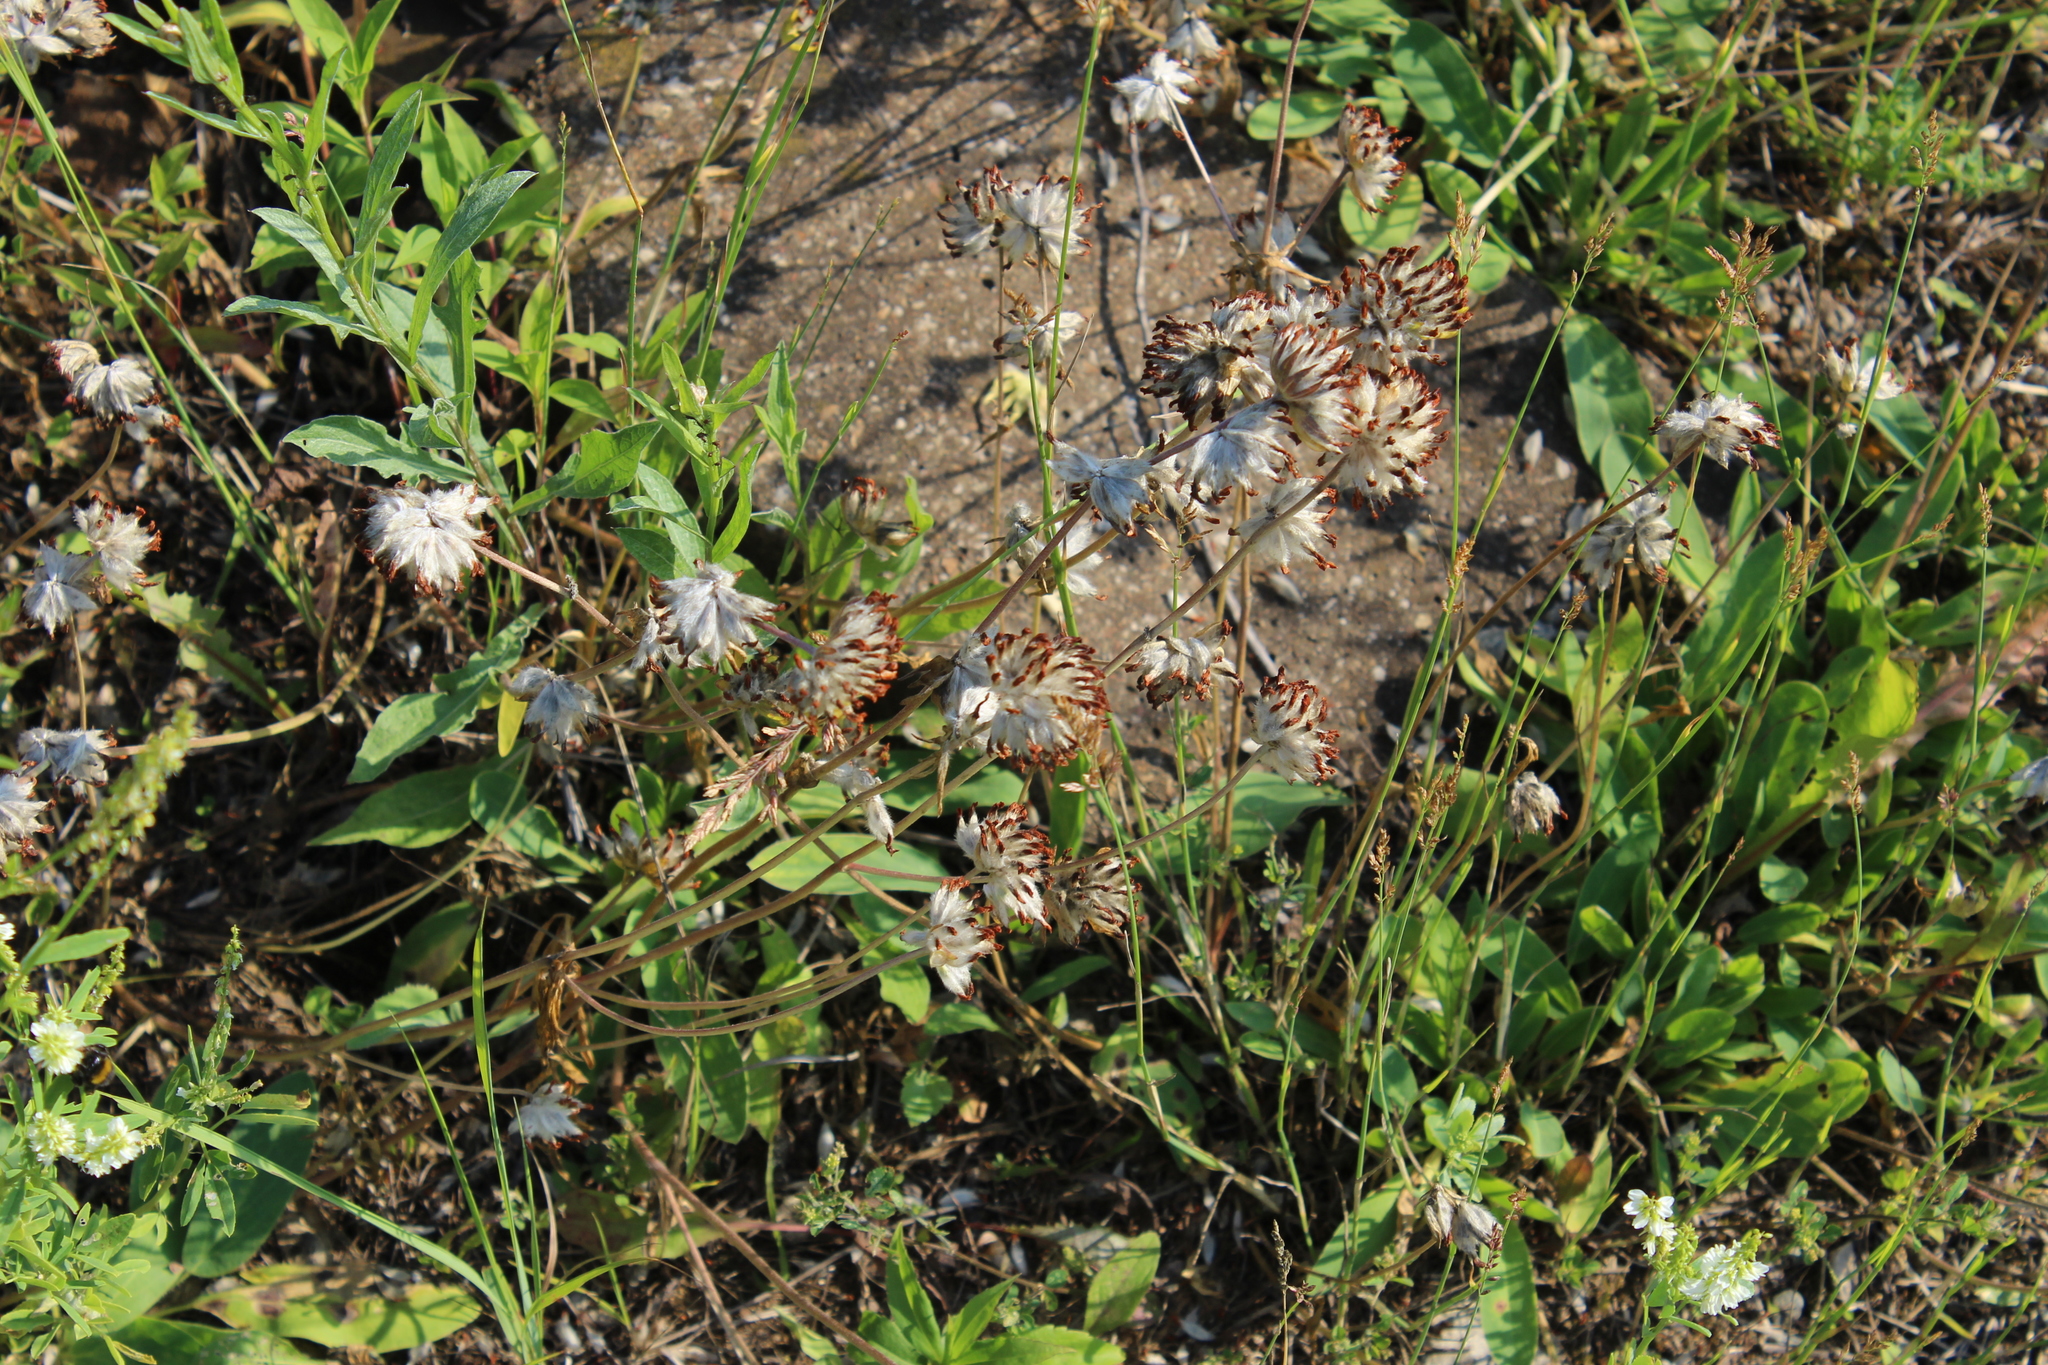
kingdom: Plantae
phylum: Tracheophyta
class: Magnoliopsida
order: Fabales
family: Fabaceae
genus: Anthyllis
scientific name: Anthyllis vulneraria
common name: Kidney vetch
